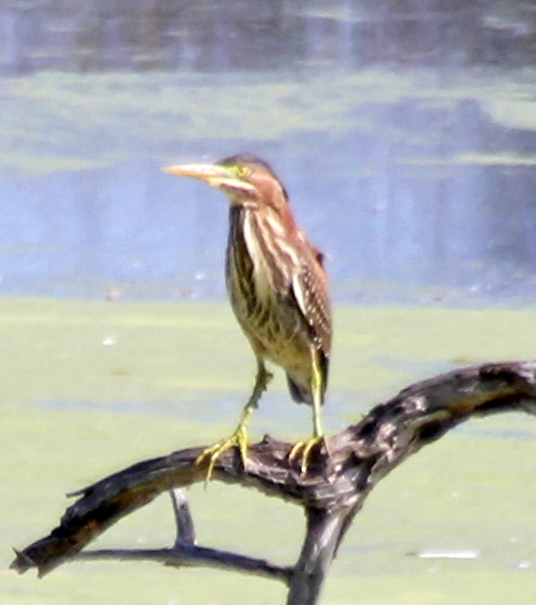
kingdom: Animalia
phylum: Chordata
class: Aves
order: Pelecaniformes
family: Ardeidae
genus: Butorides
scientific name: Butorides virescens
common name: Green heron
